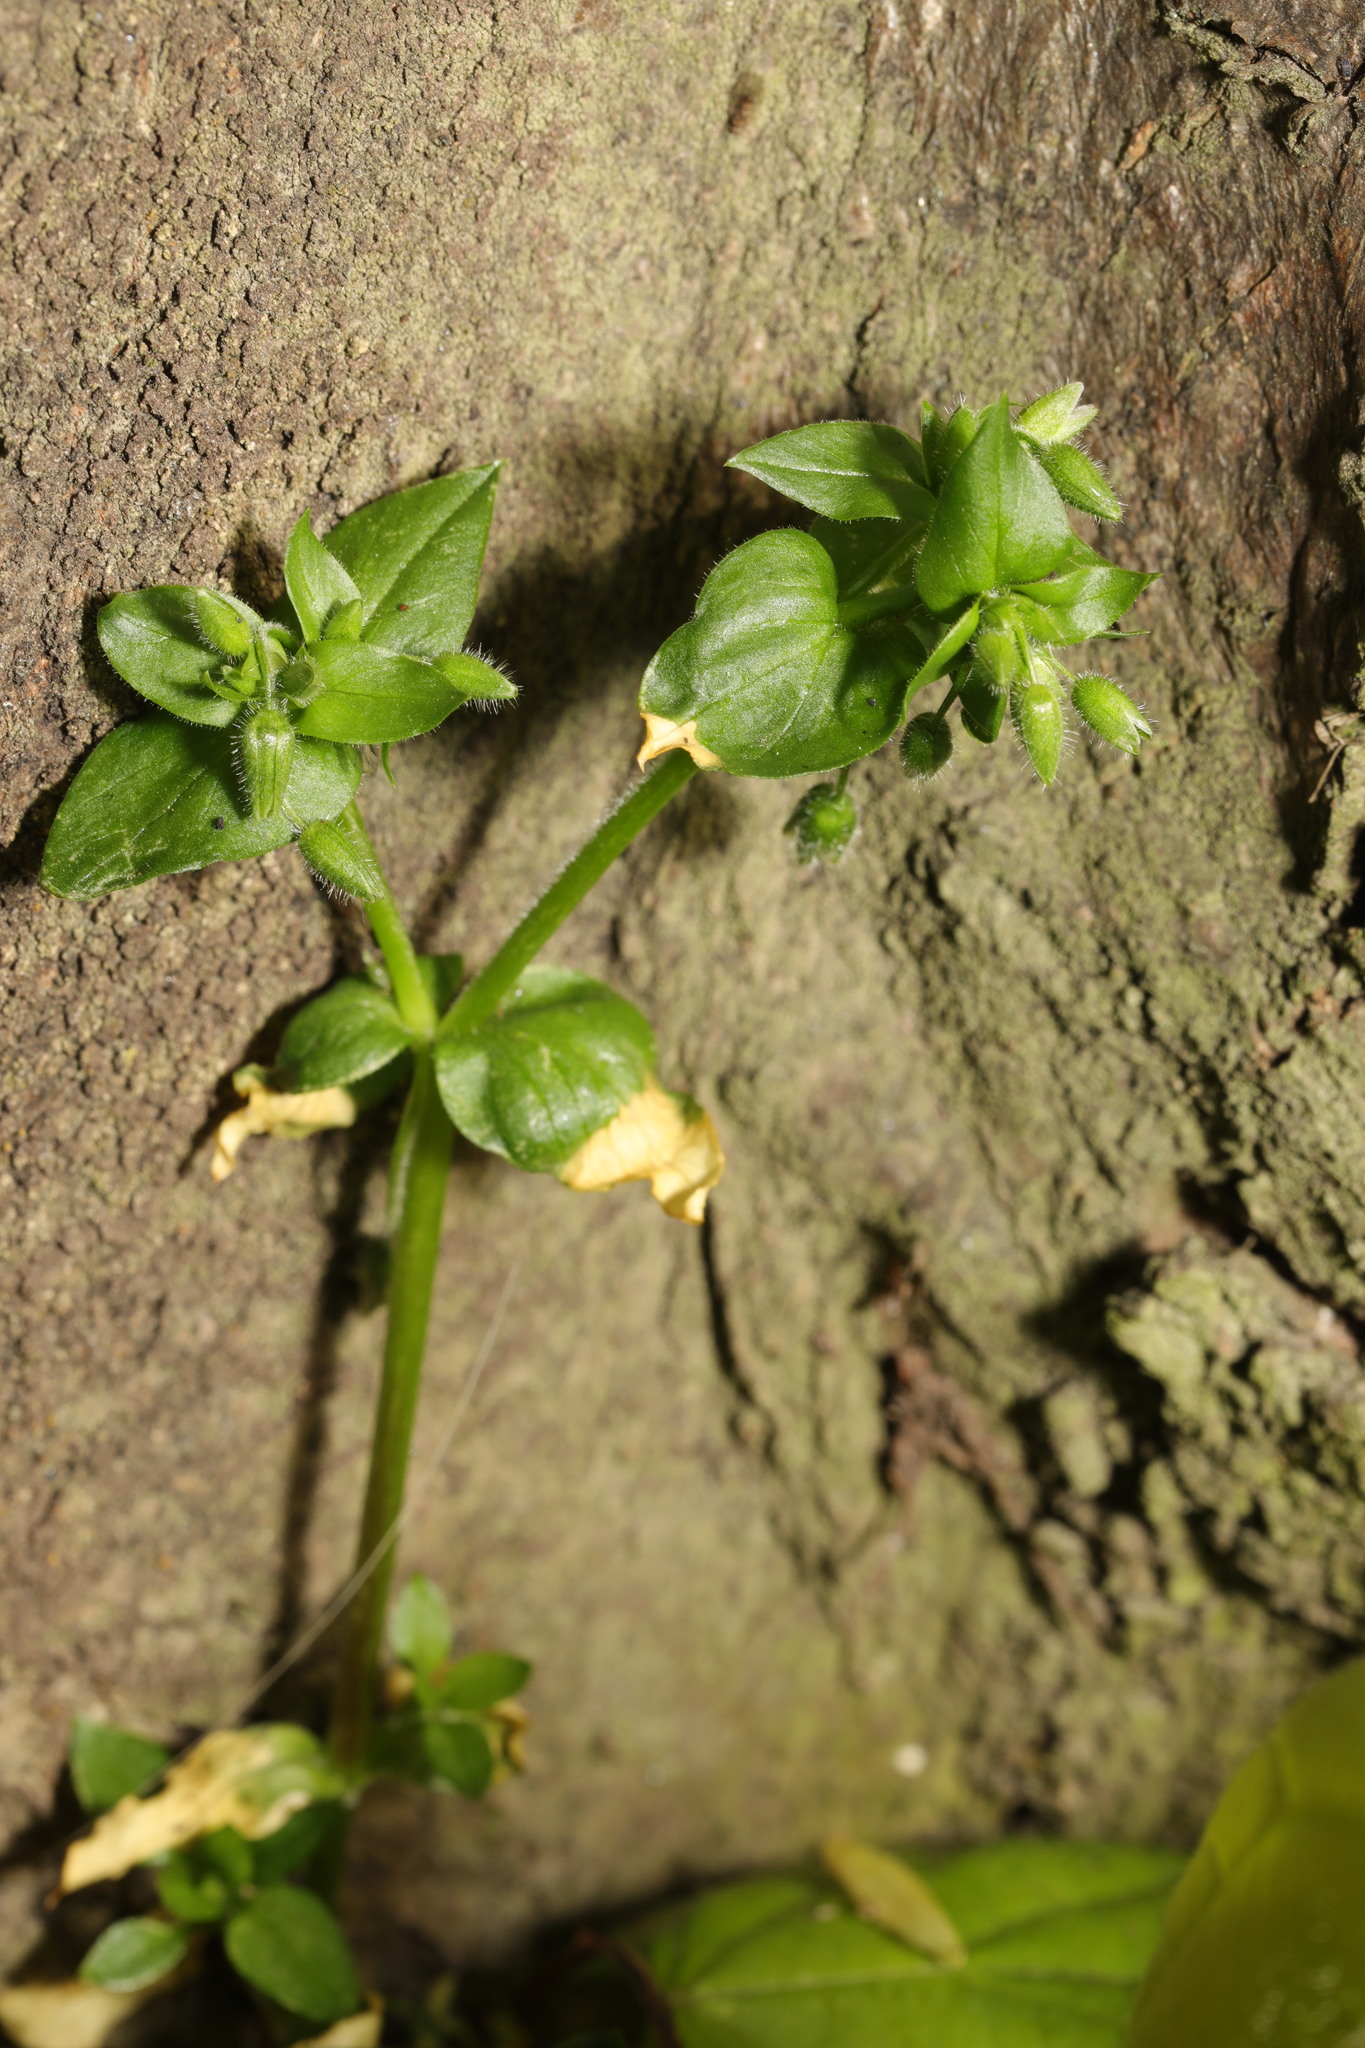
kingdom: Plantae
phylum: Tracheophyta
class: Magnoliopsida
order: Caryophyllales
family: Caryophyllaceae
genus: Stellaria
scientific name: Stellaria media
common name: Common chickweed
